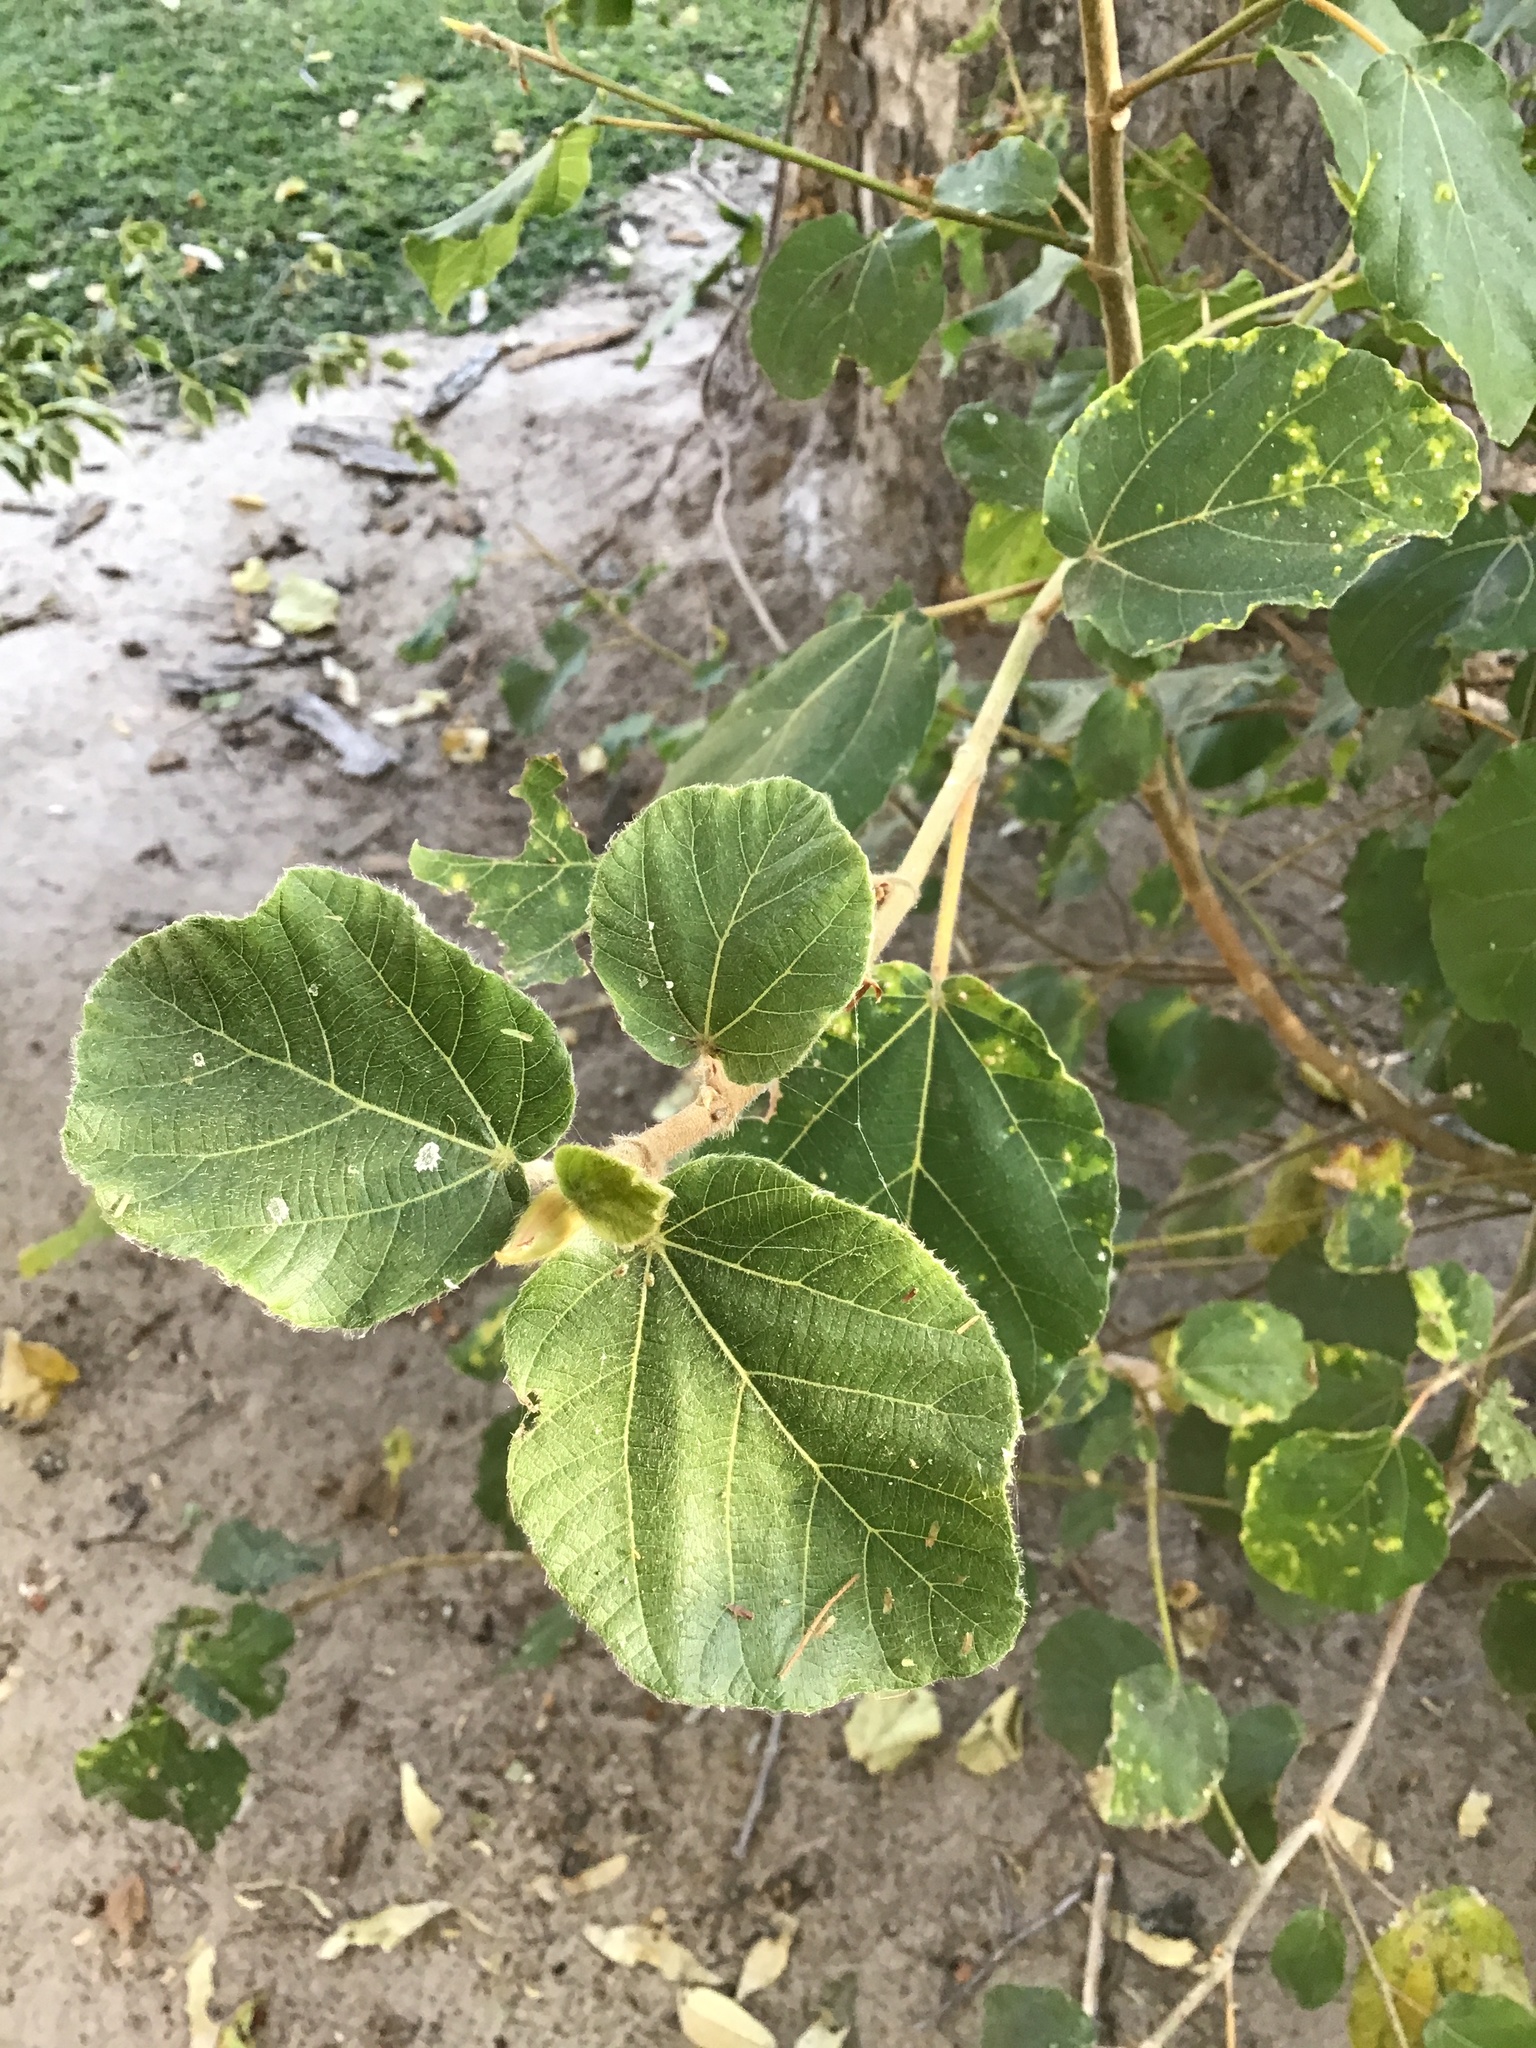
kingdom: Plantae
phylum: Tracheophyta
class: Magnoliopsida
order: Rosales
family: Moraceae
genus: Ficus
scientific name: Ficus sycomorus
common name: Sycomore
